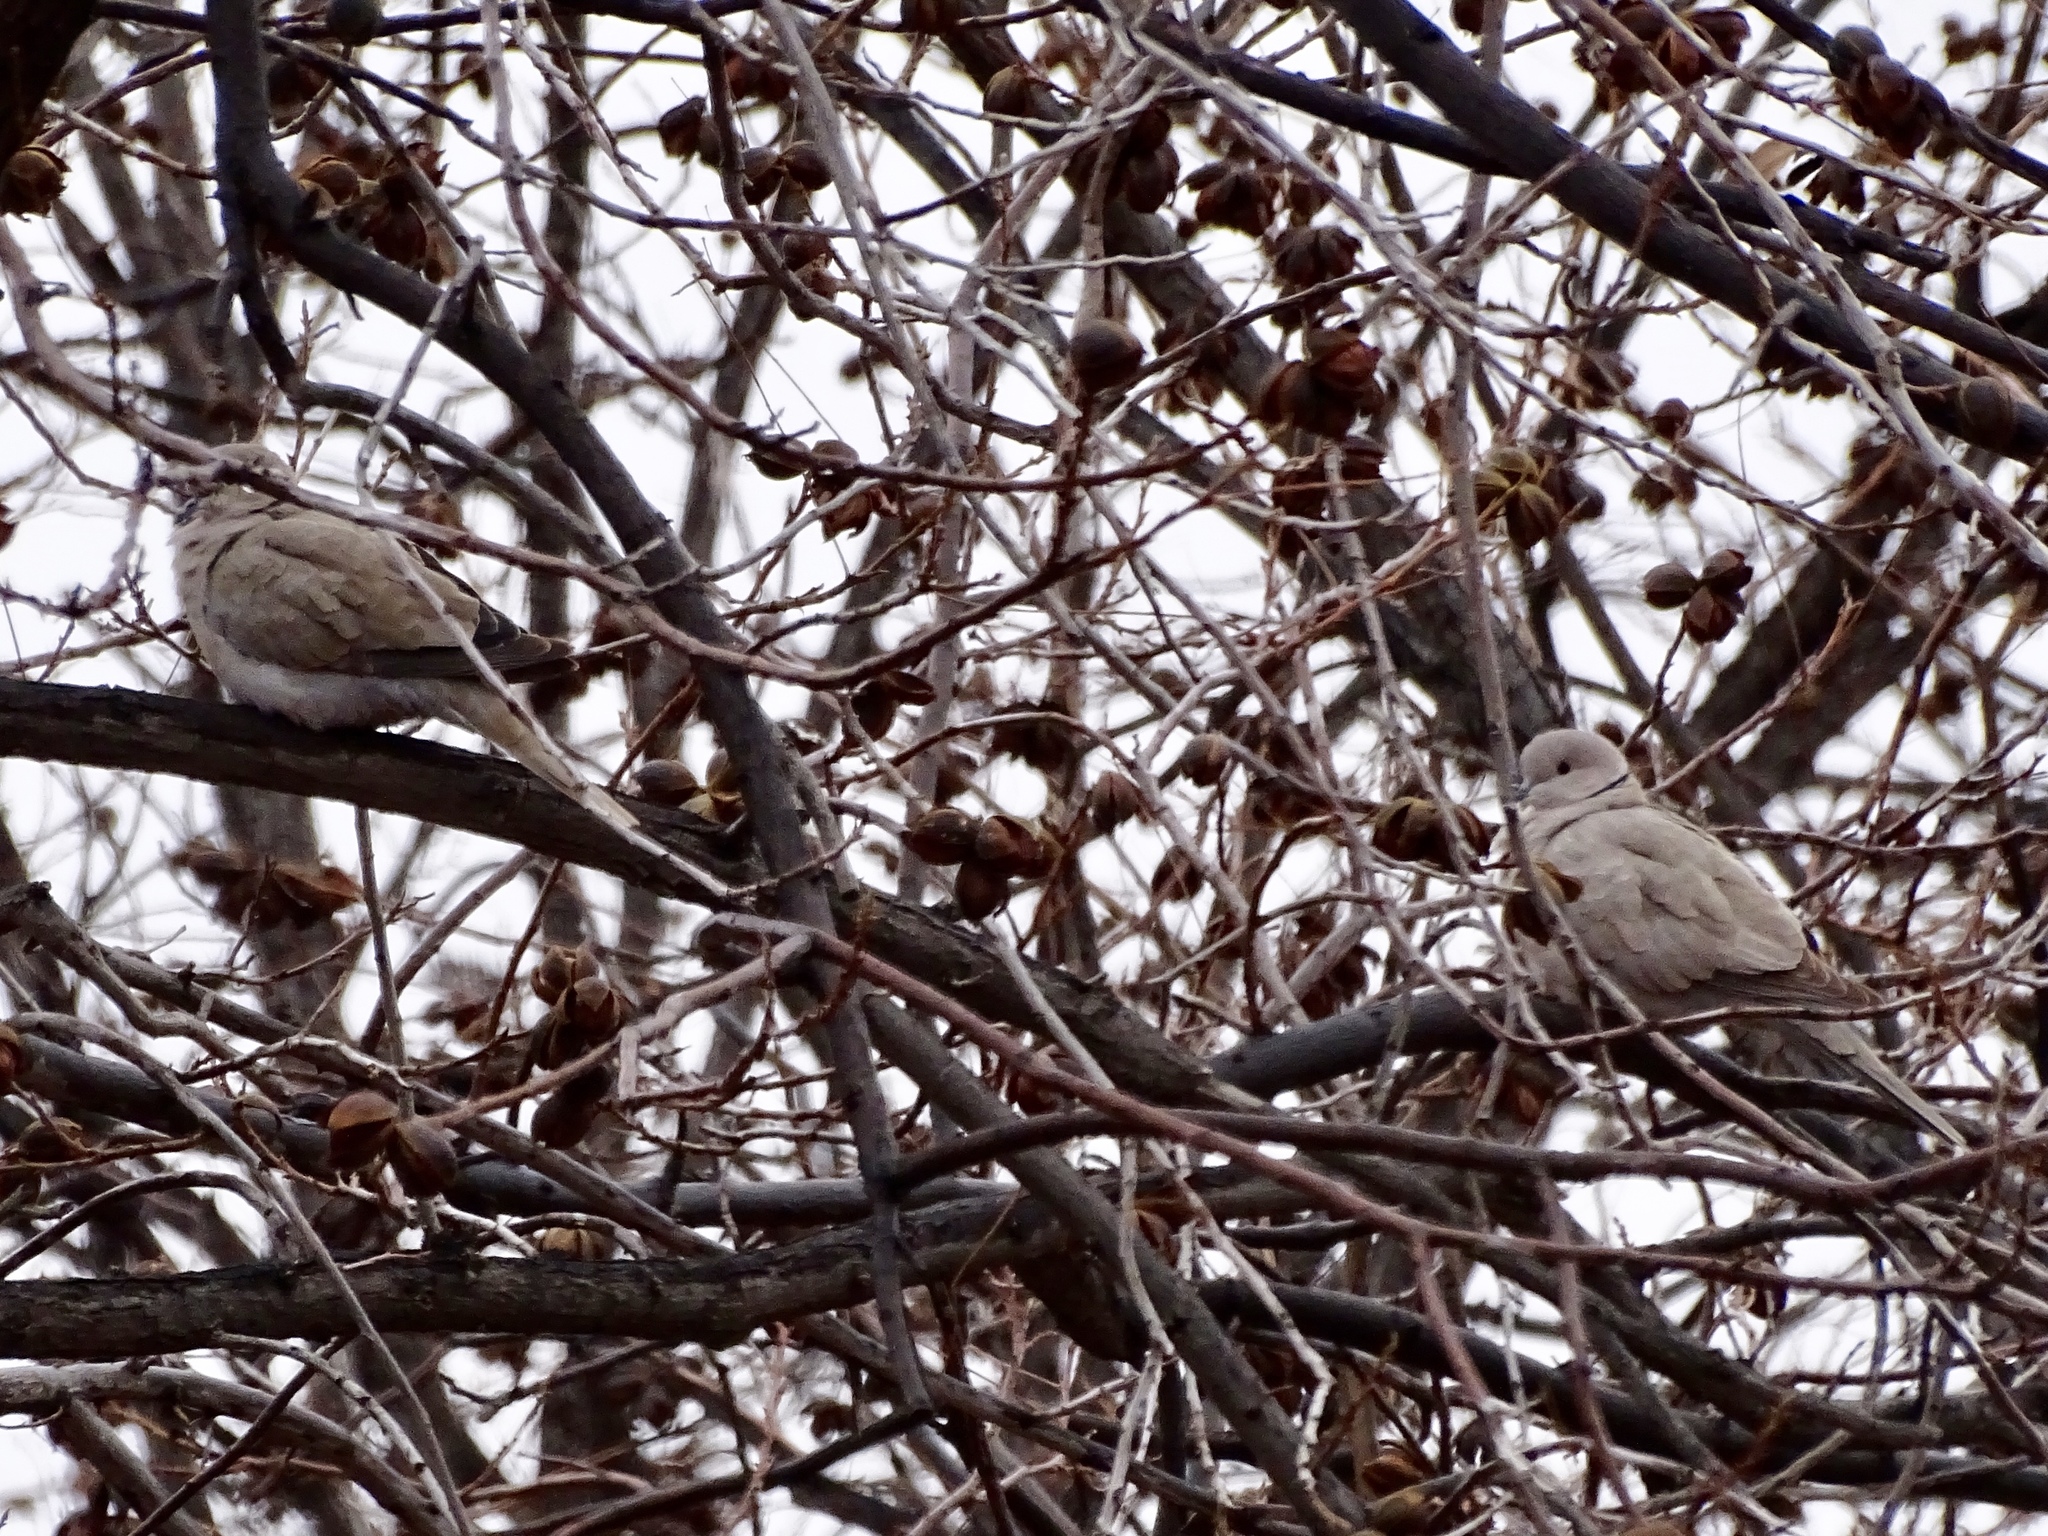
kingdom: Animalia
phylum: Chordata
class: Aves
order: Columbiformes
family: Columbidae
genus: Streptopelia
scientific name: Streptopelia decaocto
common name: Eurasian collared dove
